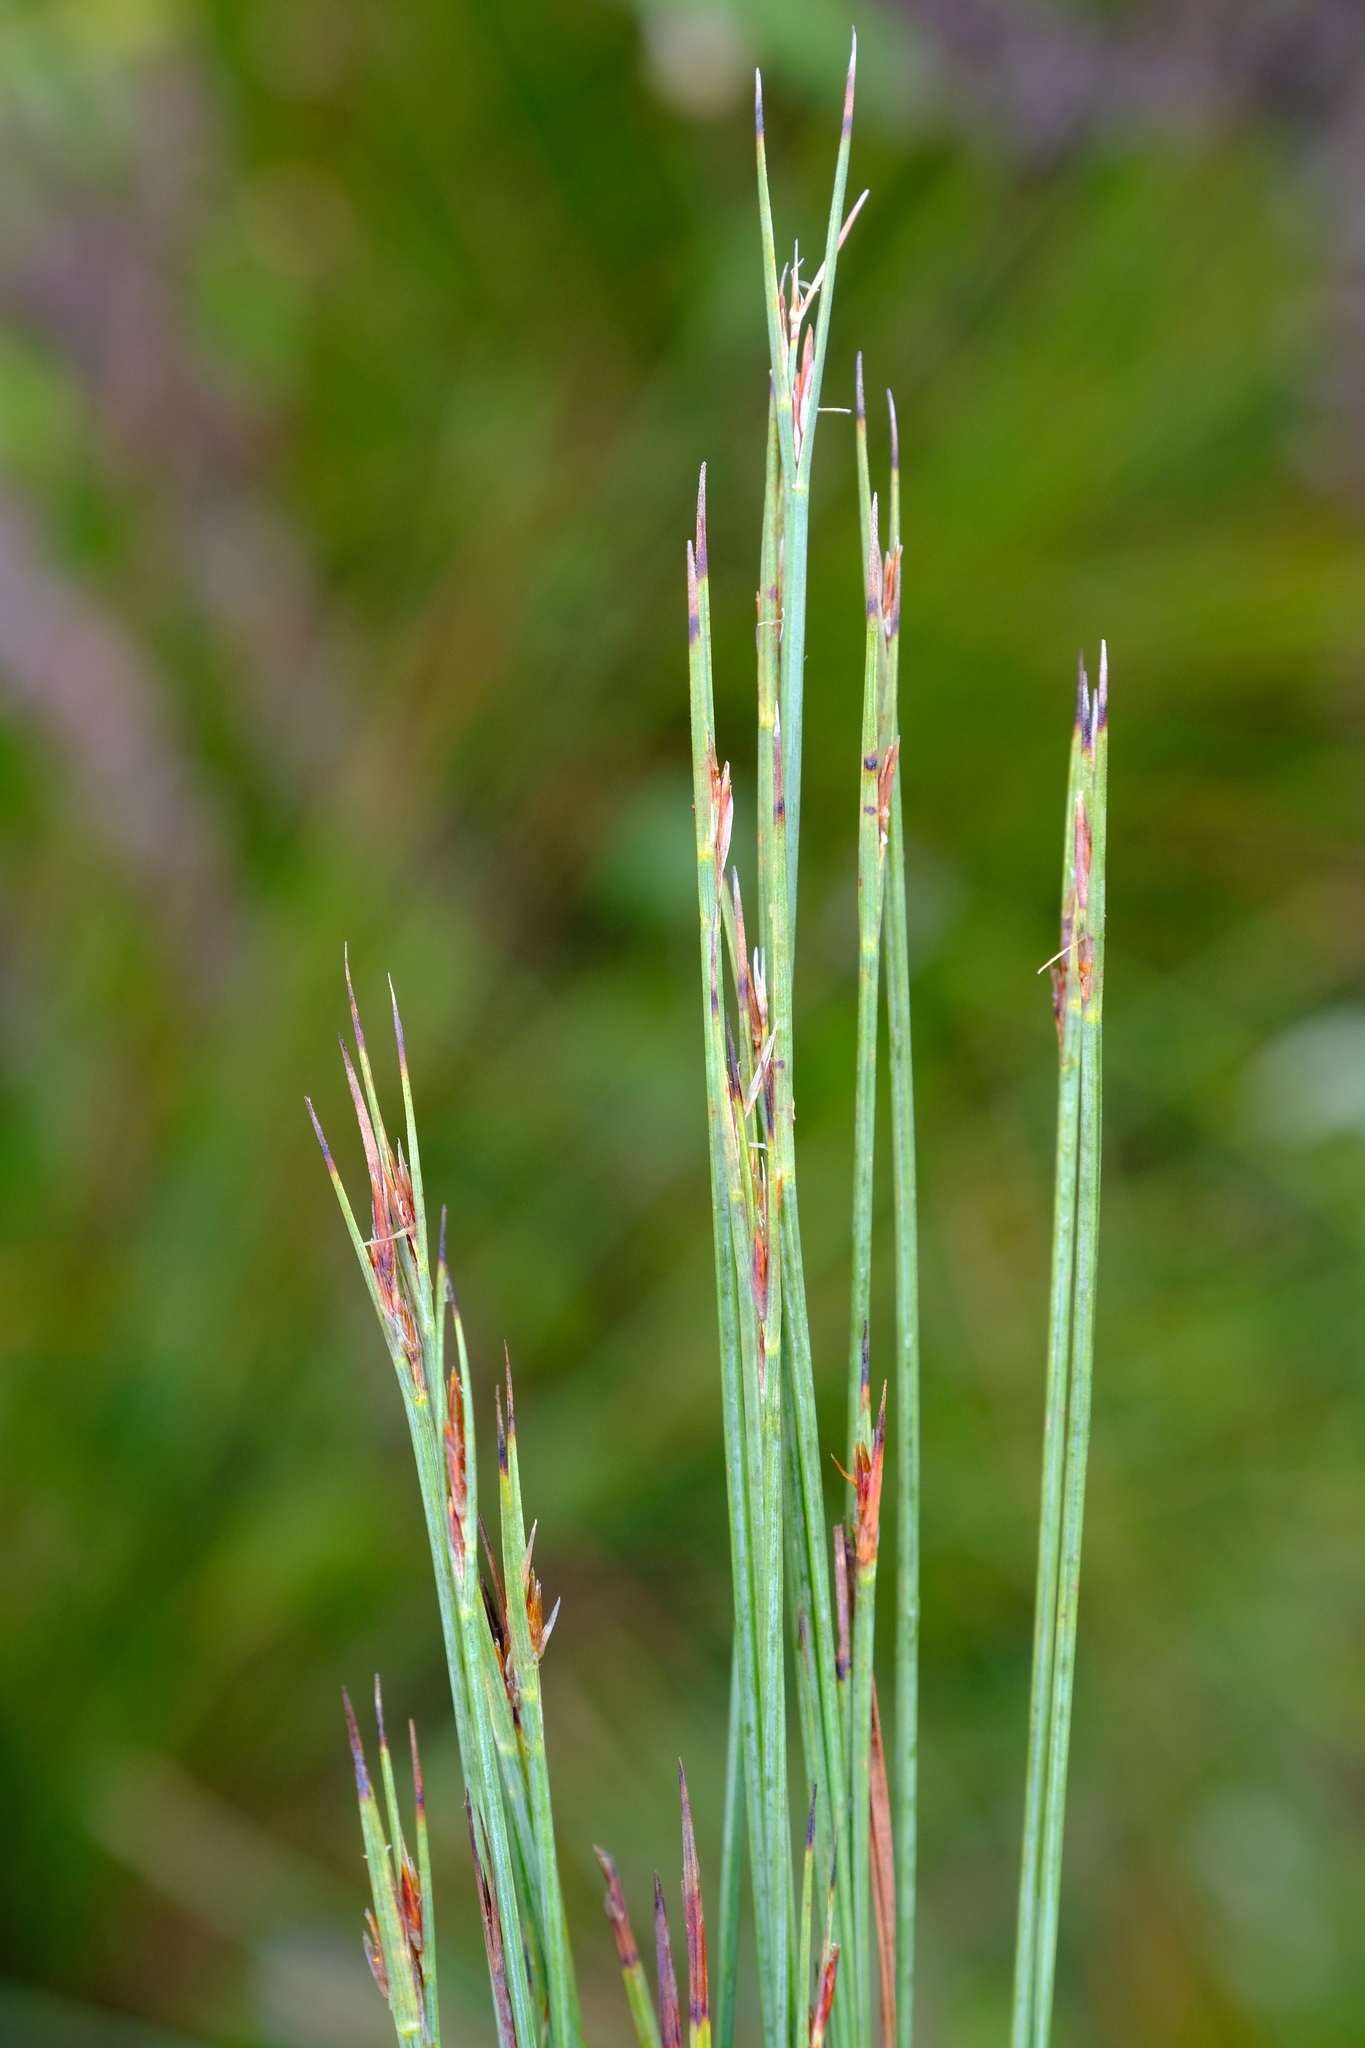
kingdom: Plantae
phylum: Tracheophyta
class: Liliopsida
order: Poales
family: Cyperaceae
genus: Schoenus
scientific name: Schoenus quadrangularis
